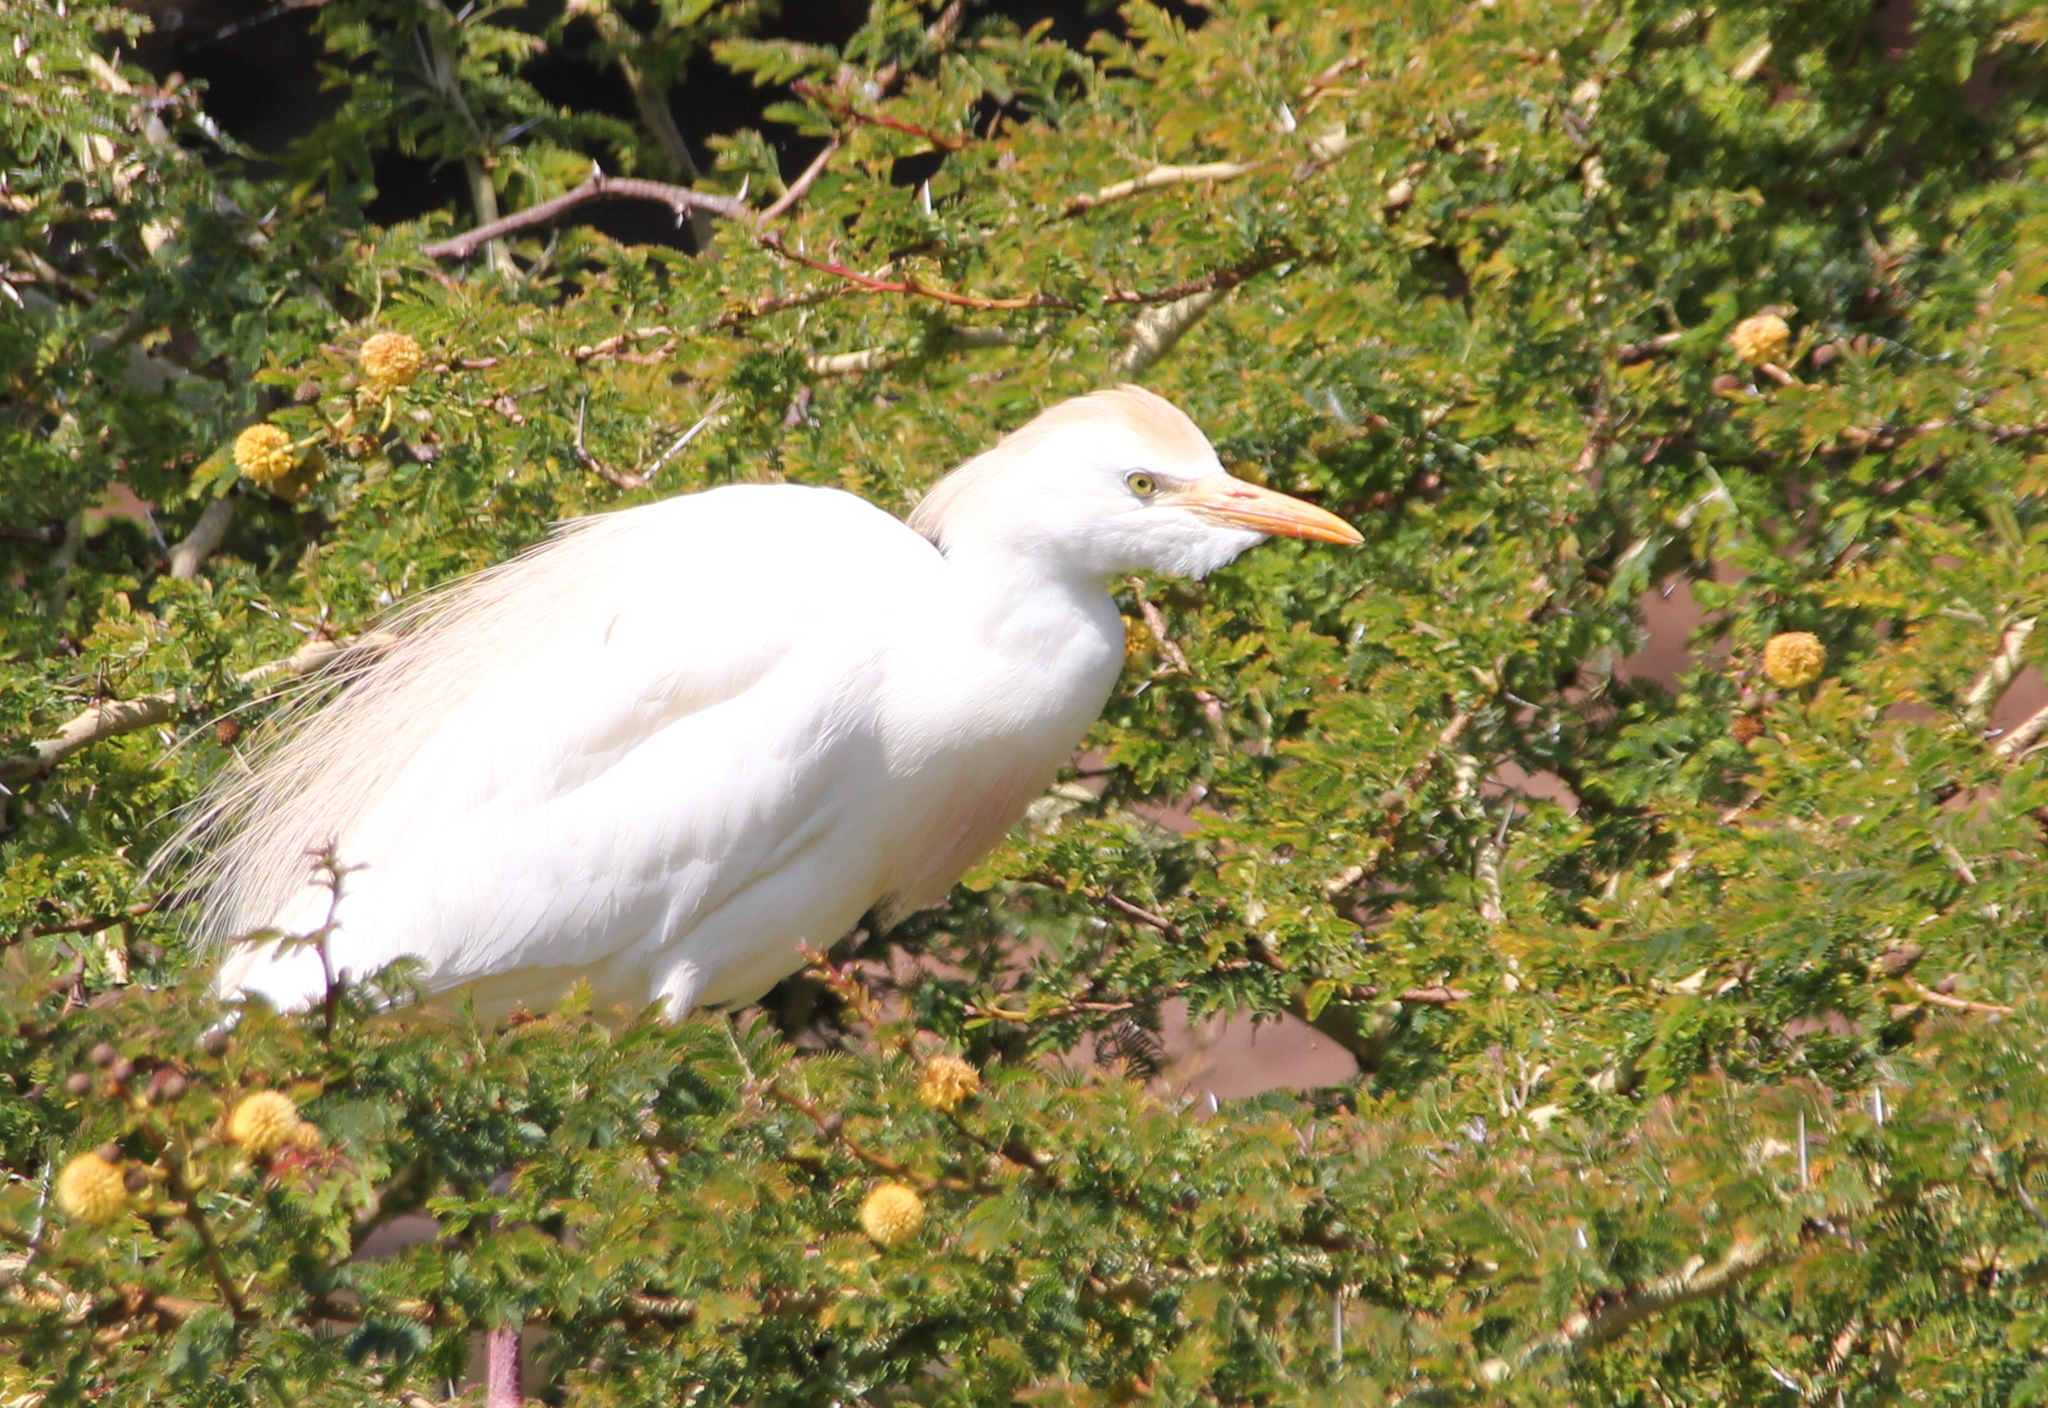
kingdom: Animalia
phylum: Chordata
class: Aves
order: Pelecaniformes
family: Ardeidae
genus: Bubulcus
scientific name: Bubulcus ibis
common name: Cattle egret
